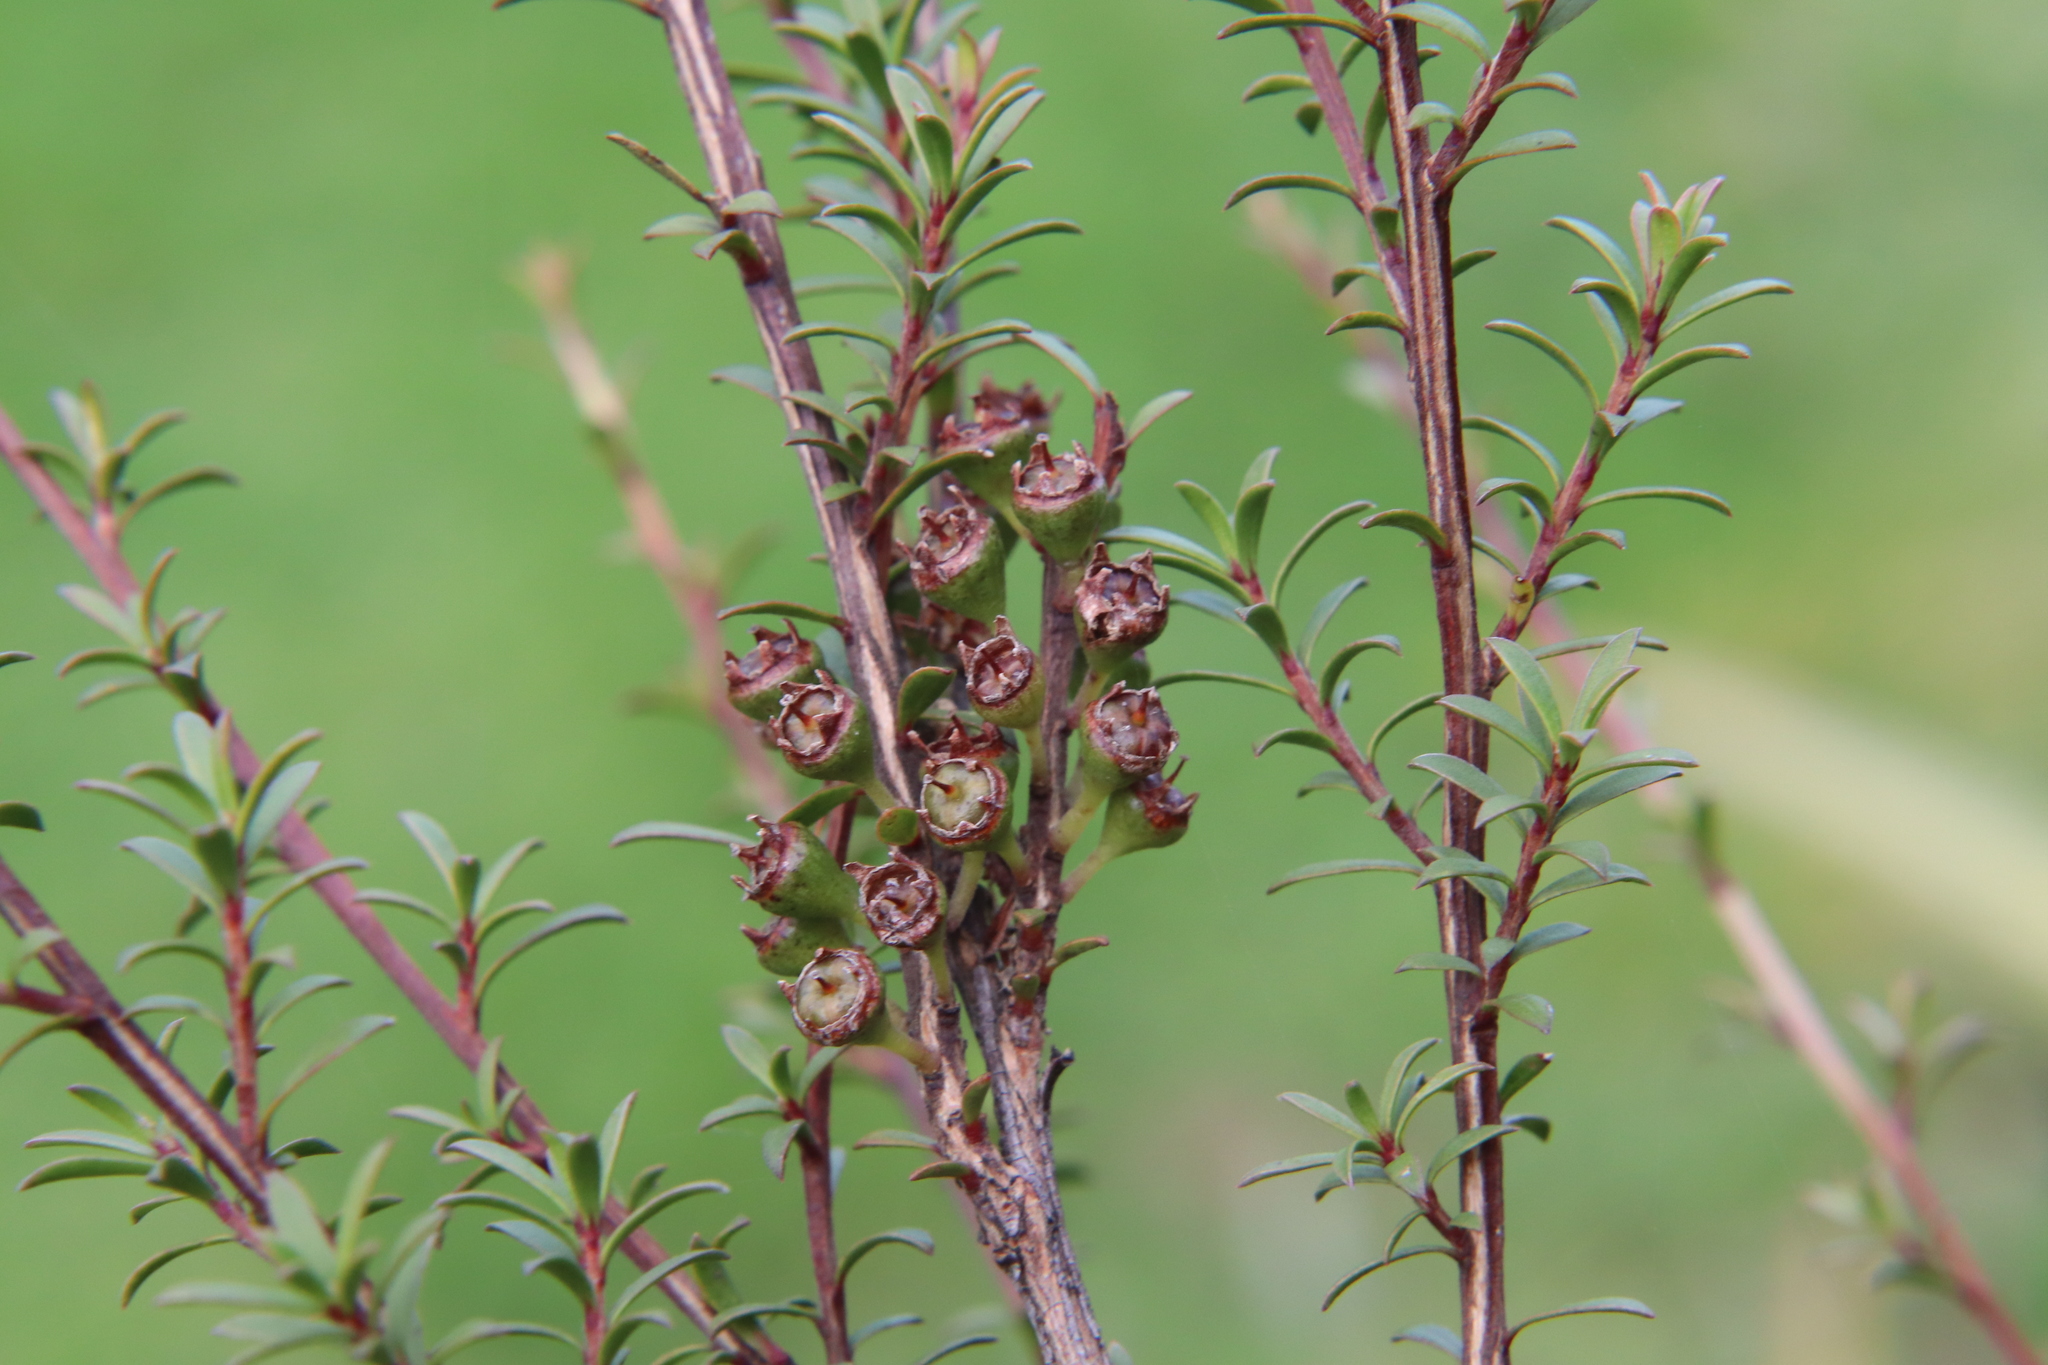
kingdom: Plantae
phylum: Tracheophyta
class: Magnoliopsida
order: Myrtales
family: Myrtaceae
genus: Kunzea
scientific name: Kunzea robusta
